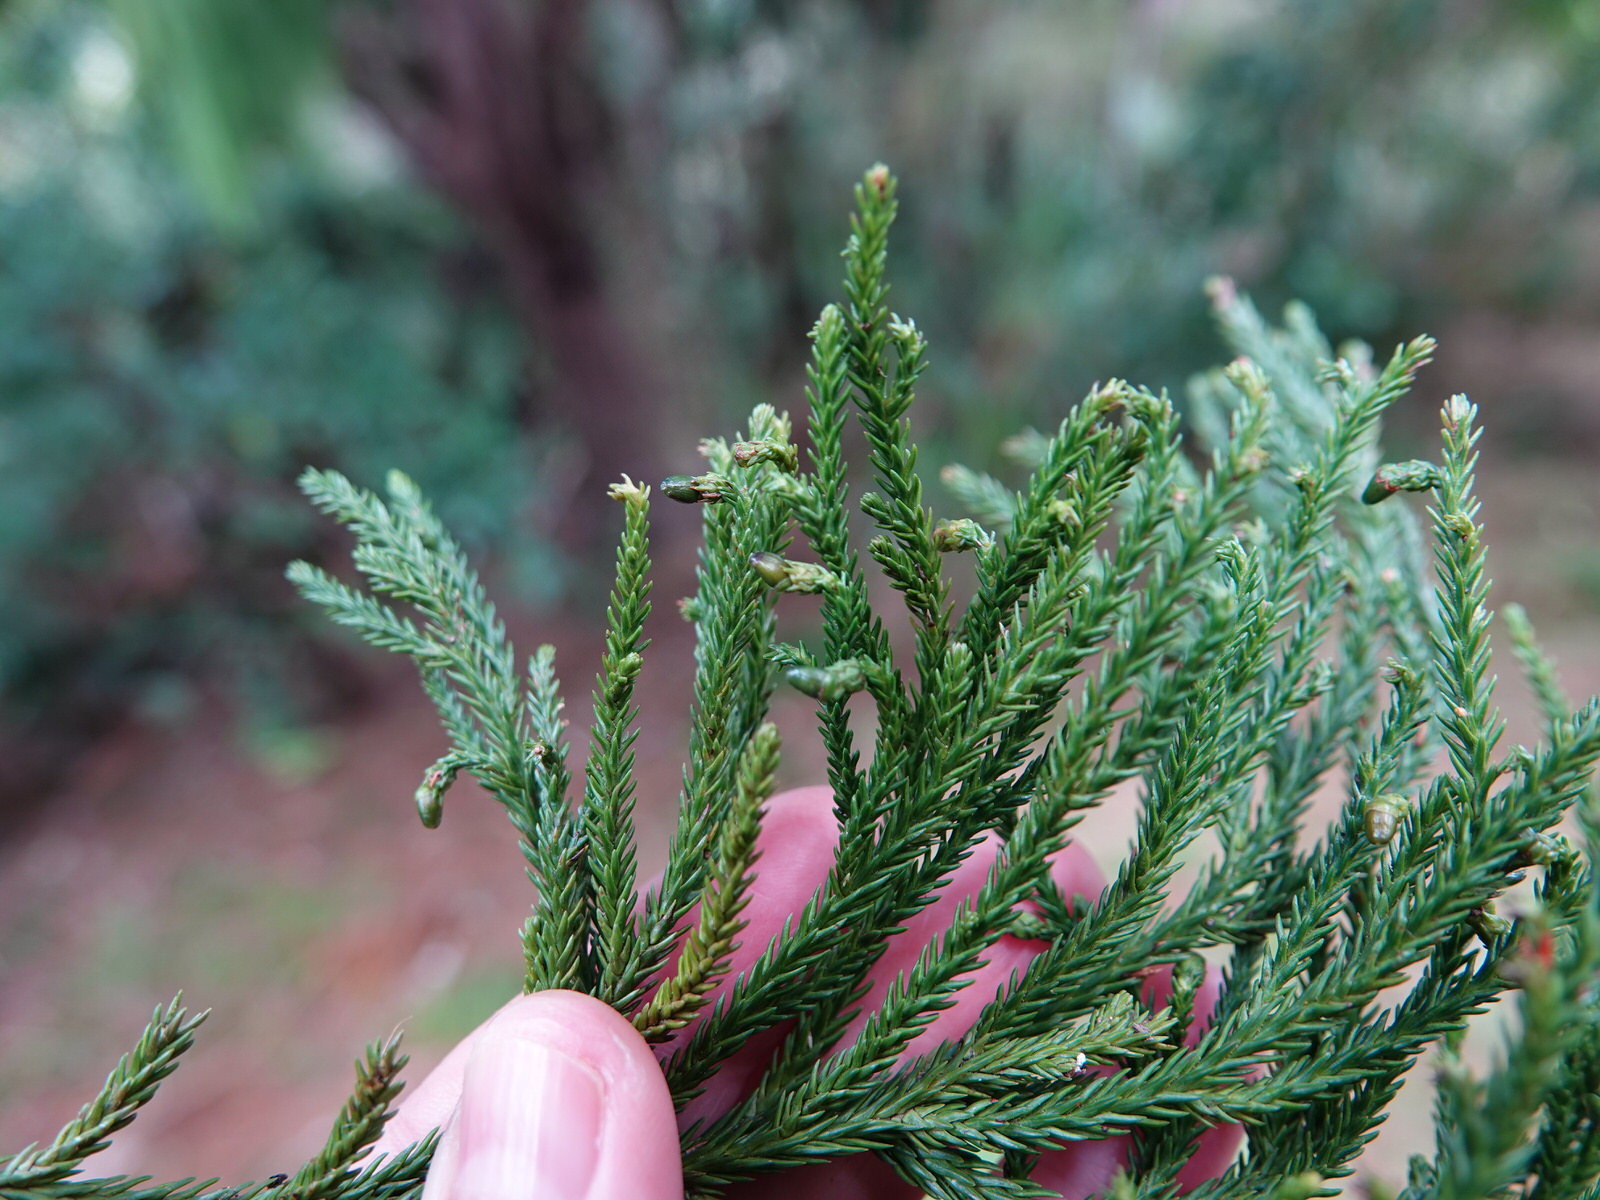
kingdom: Plantae
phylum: Tracheophyta
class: Pinopsida
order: Pinales
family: Podocarpaceae
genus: Dacrydium
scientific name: Dacrydium cupressinum
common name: Red pine
